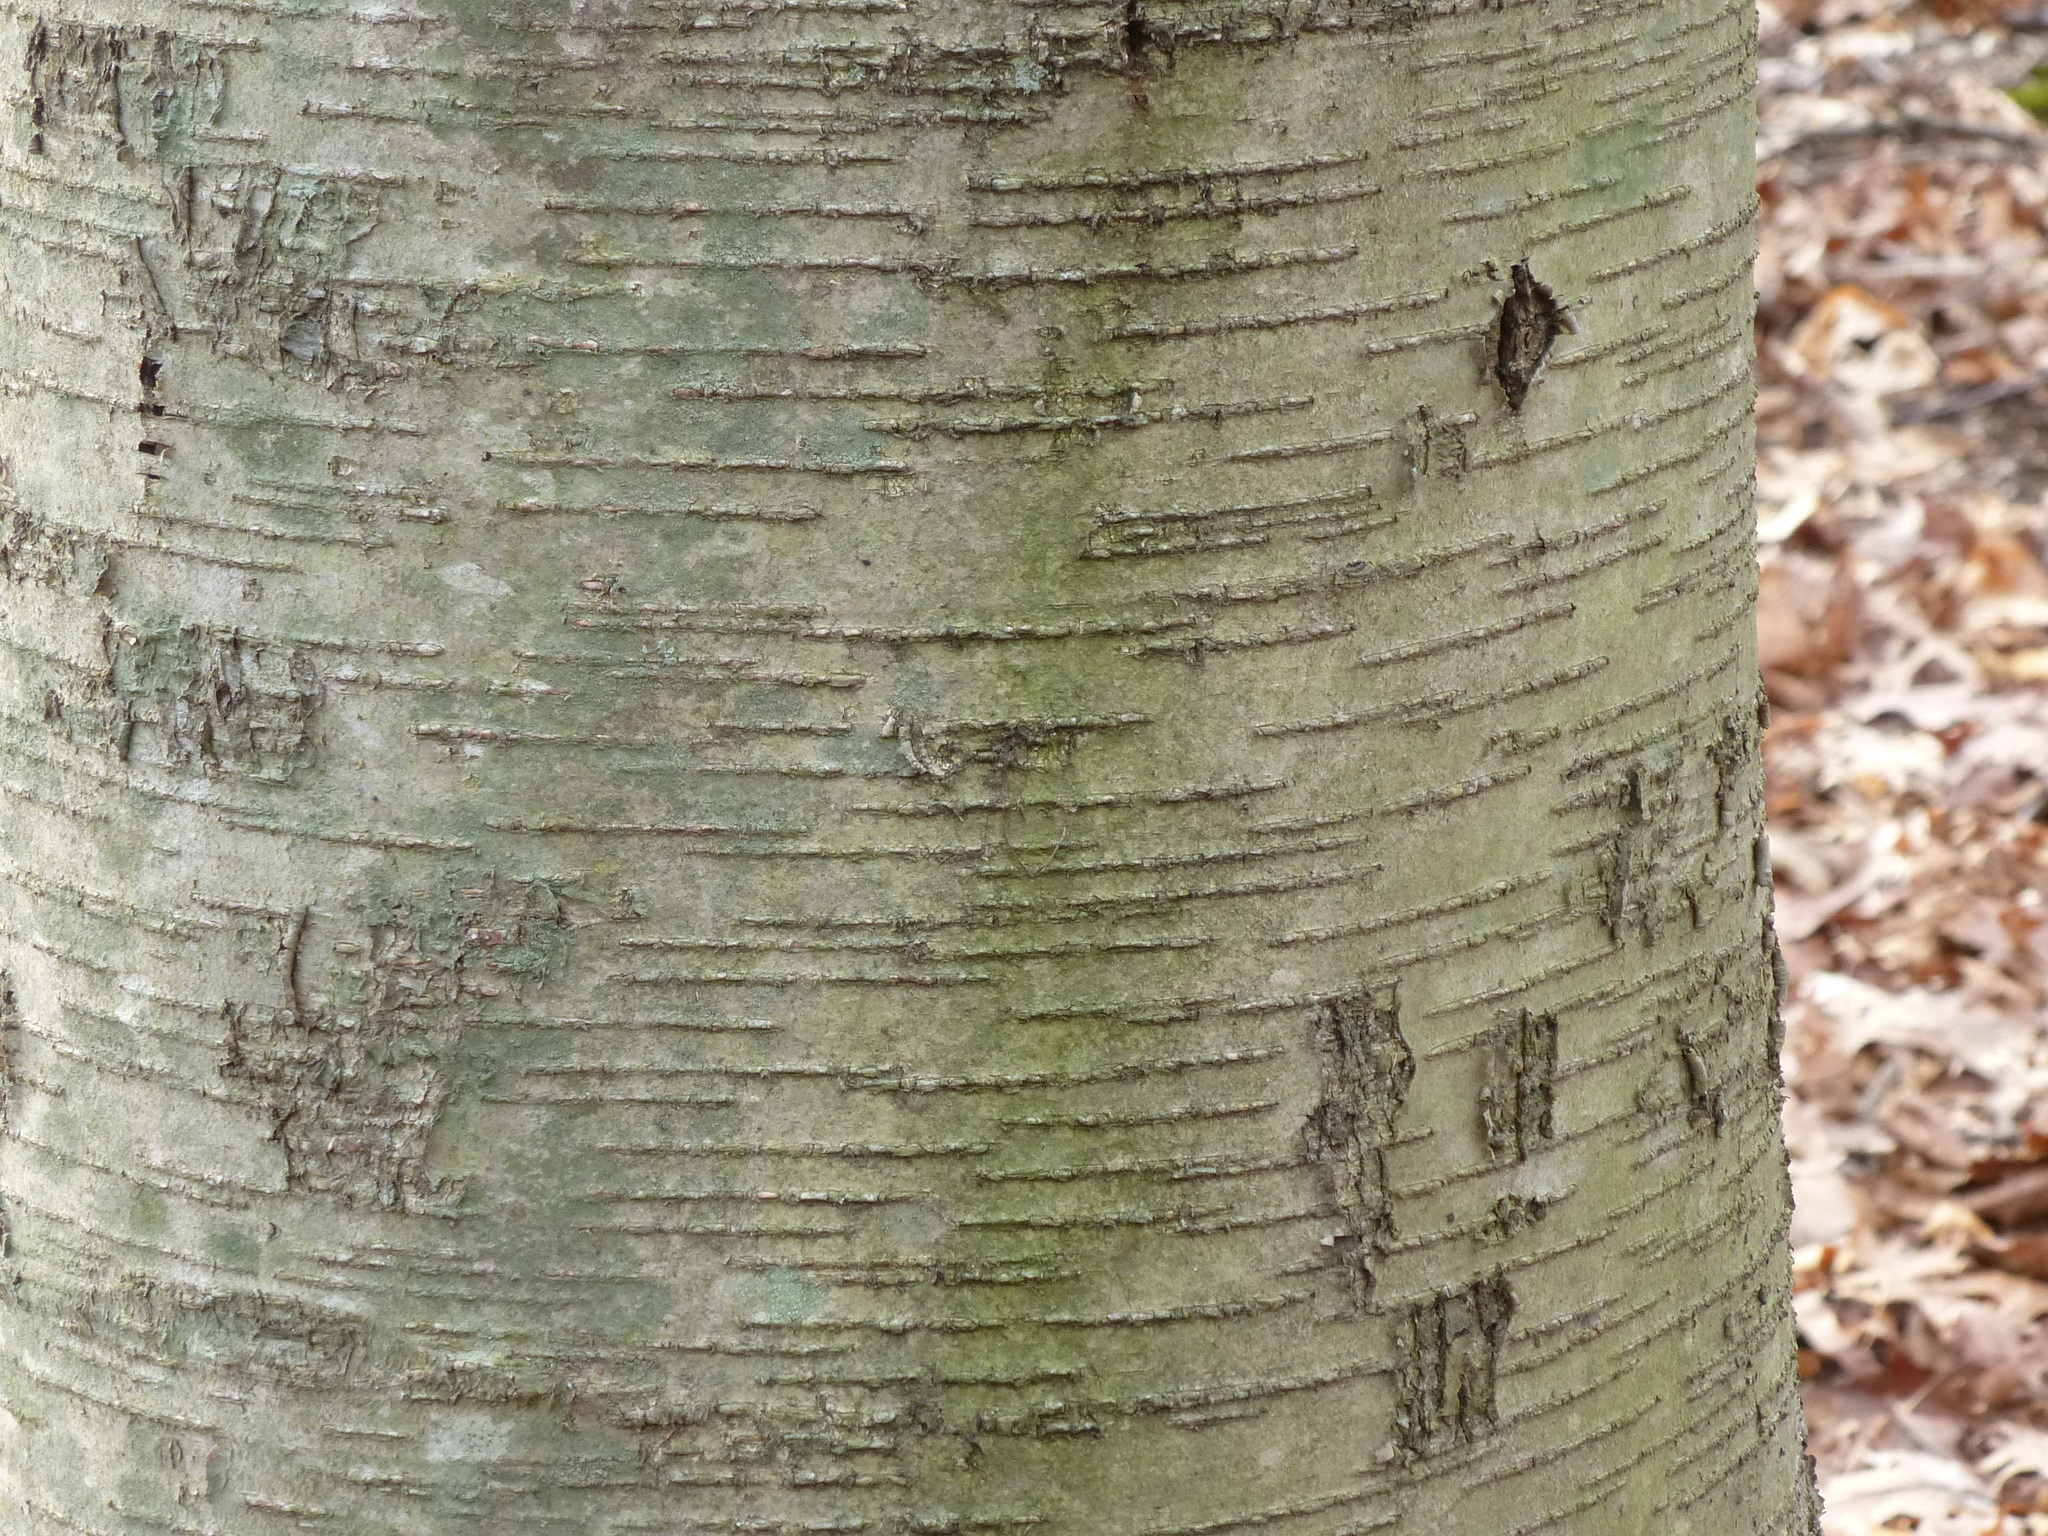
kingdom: Plantae
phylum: Tracheophyta
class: Magnoliopsida
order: Fagales
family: Betulaceae
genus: Betula
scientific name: Betula lenta
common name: Black birch
